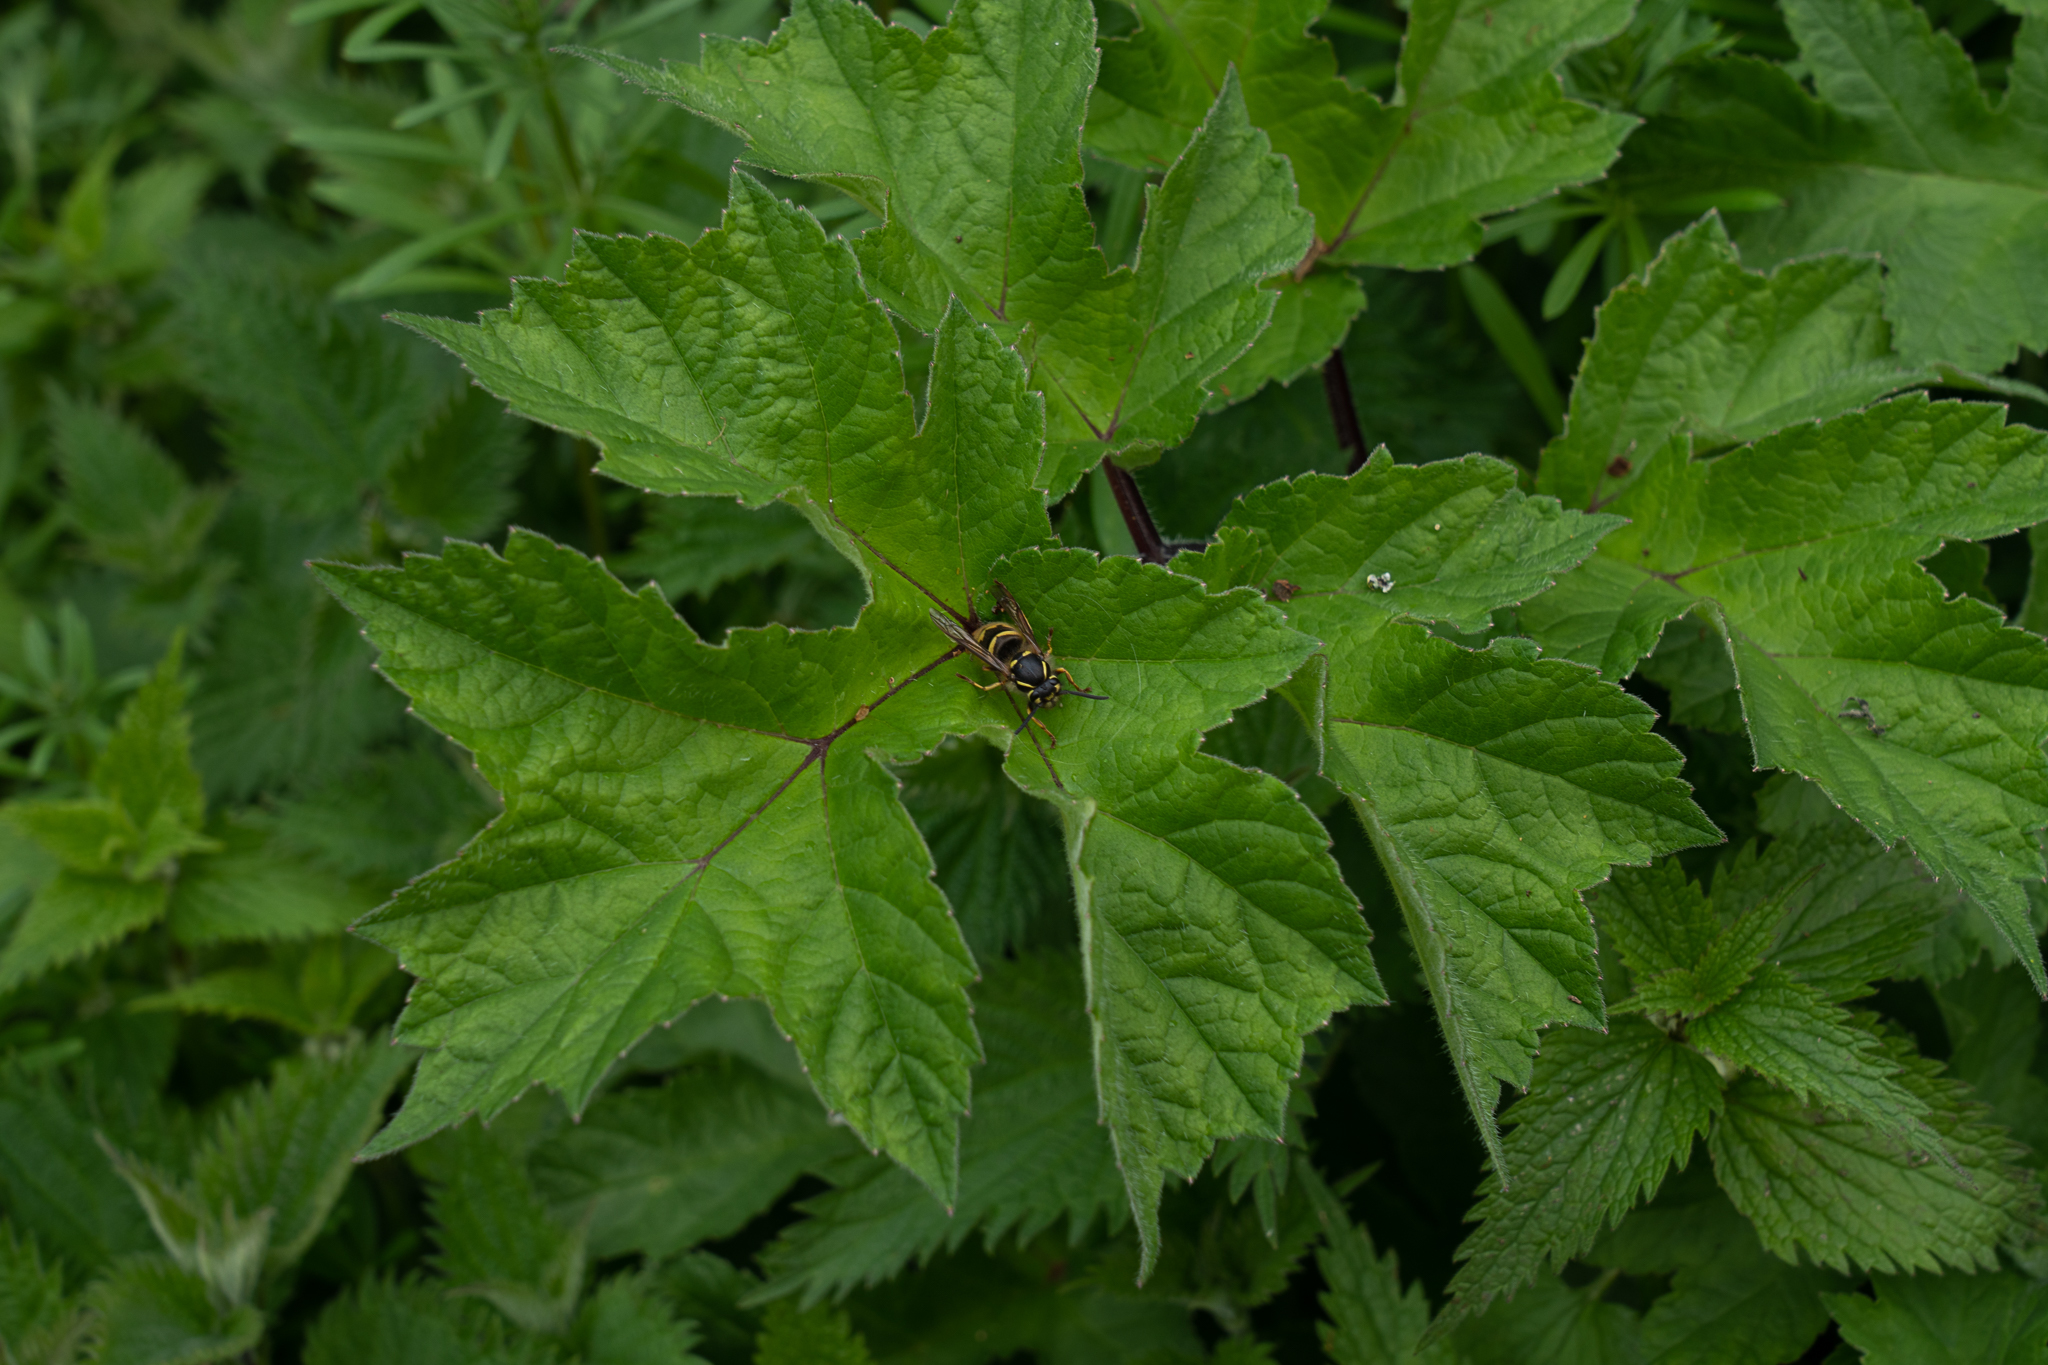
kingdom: Animalia
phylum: Arthropoda
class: Insecta
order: Hymenoptera
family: Vespidae
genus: Vespula
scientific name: Vespula vulgaris
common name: Common wasp
